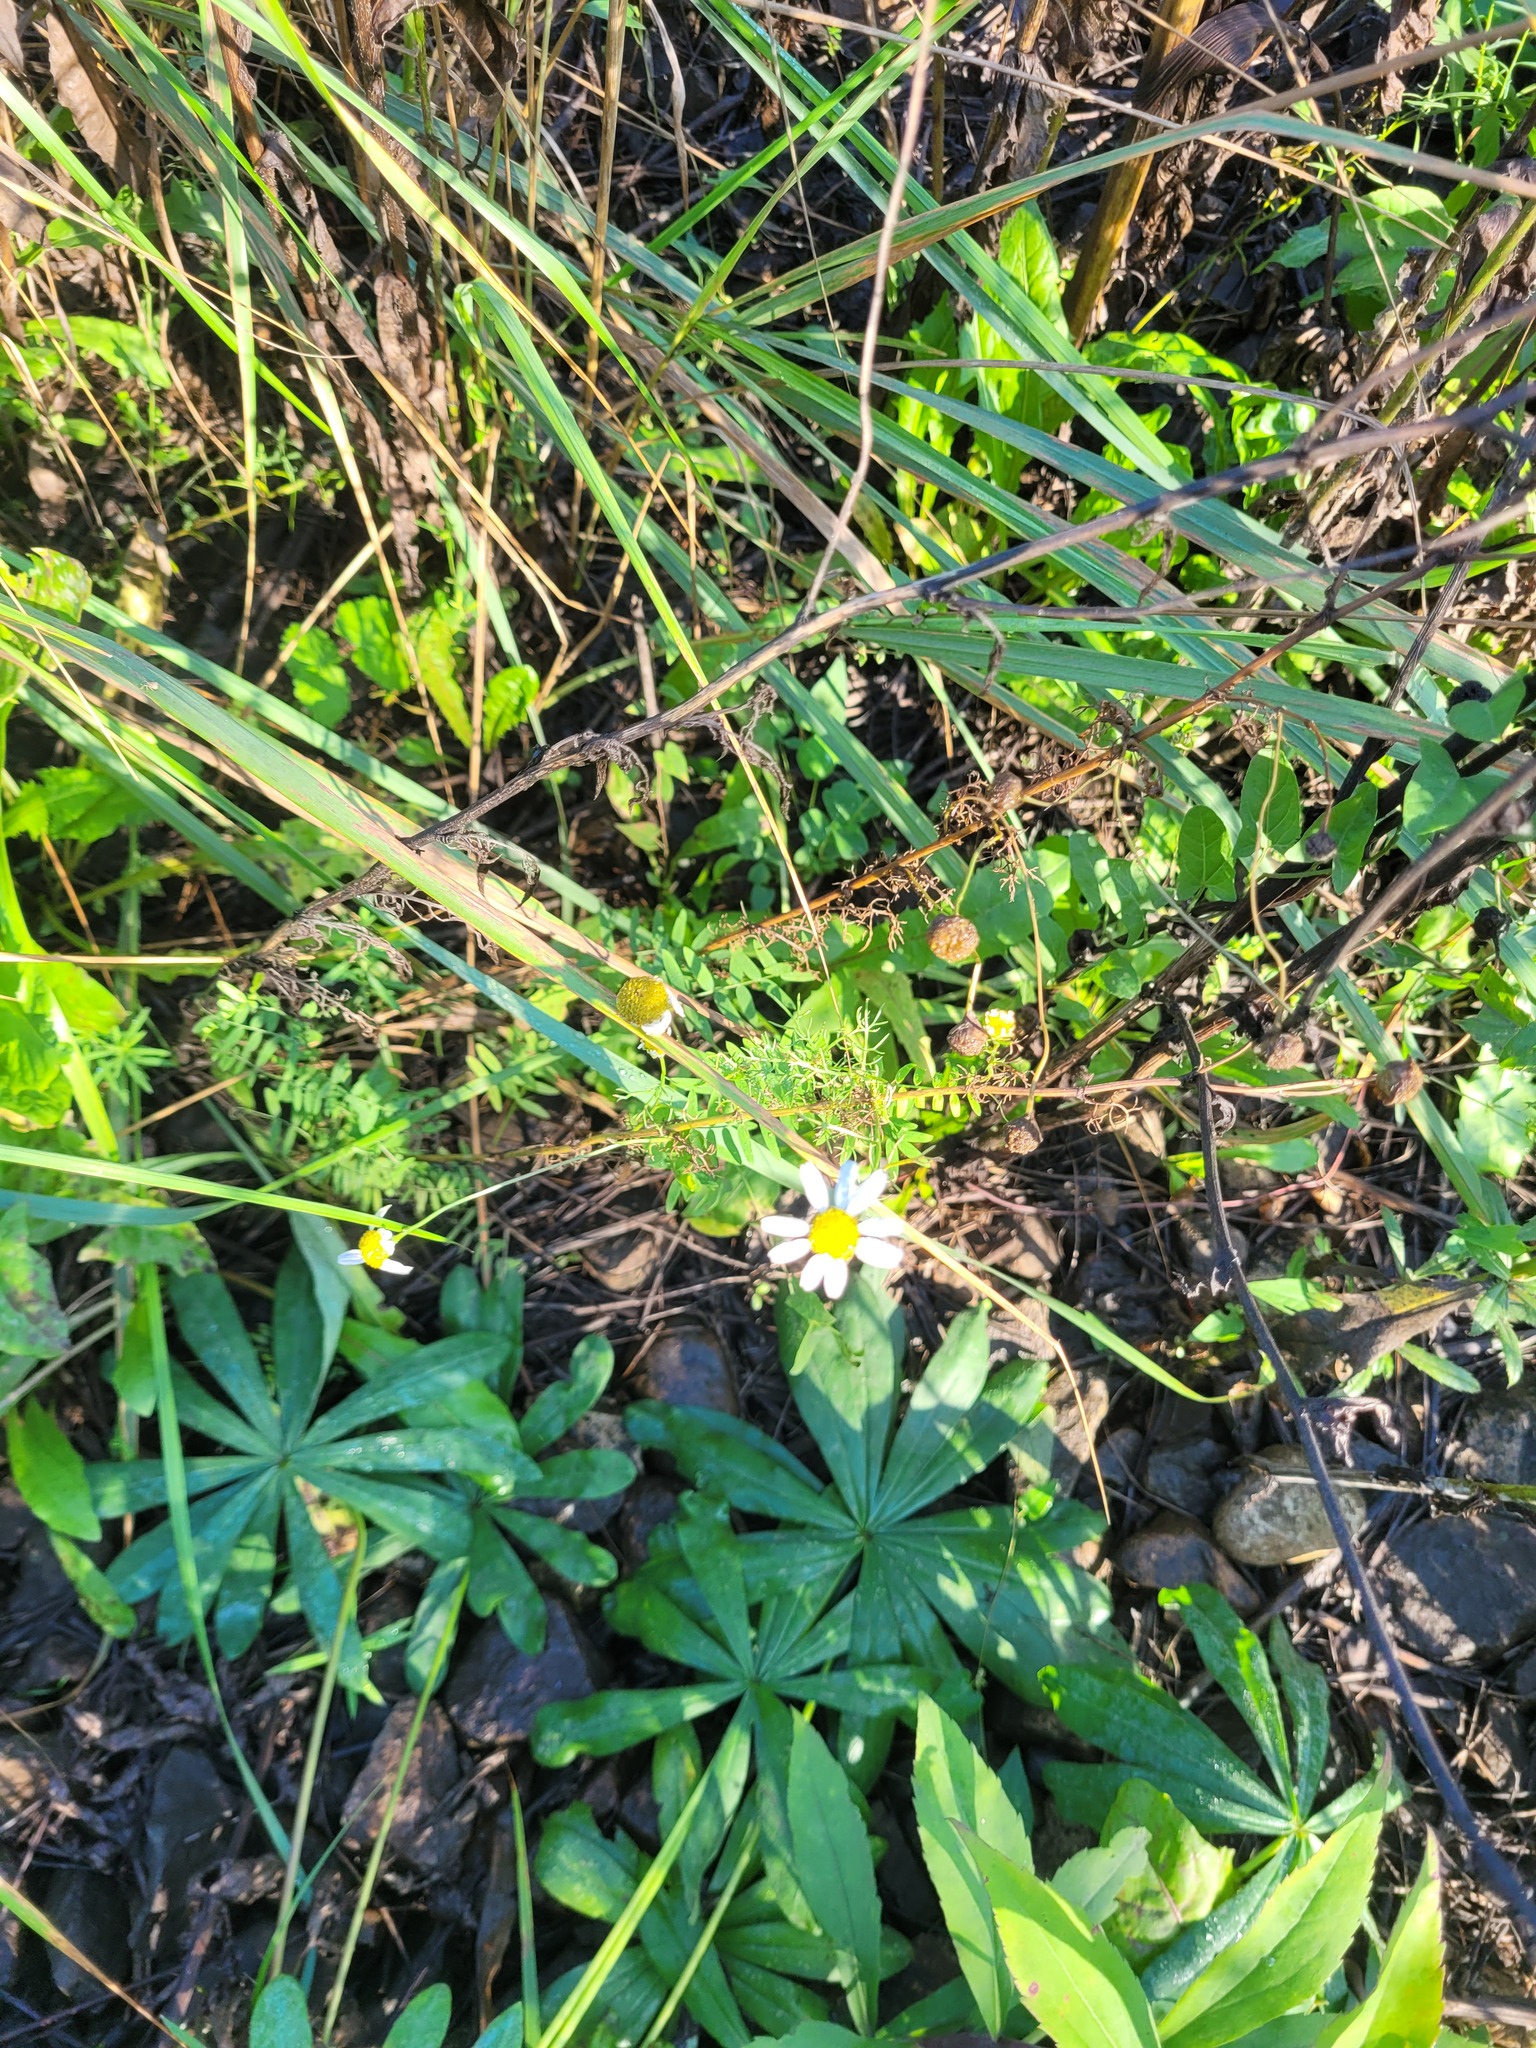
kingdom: Plantae
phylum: Tracheophyta
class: Magnoliopsida
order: Asterales
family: Asteraceae
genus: Tripleurospermum
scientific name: Tripleurospermum inodorum
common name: Scentless mayweed
